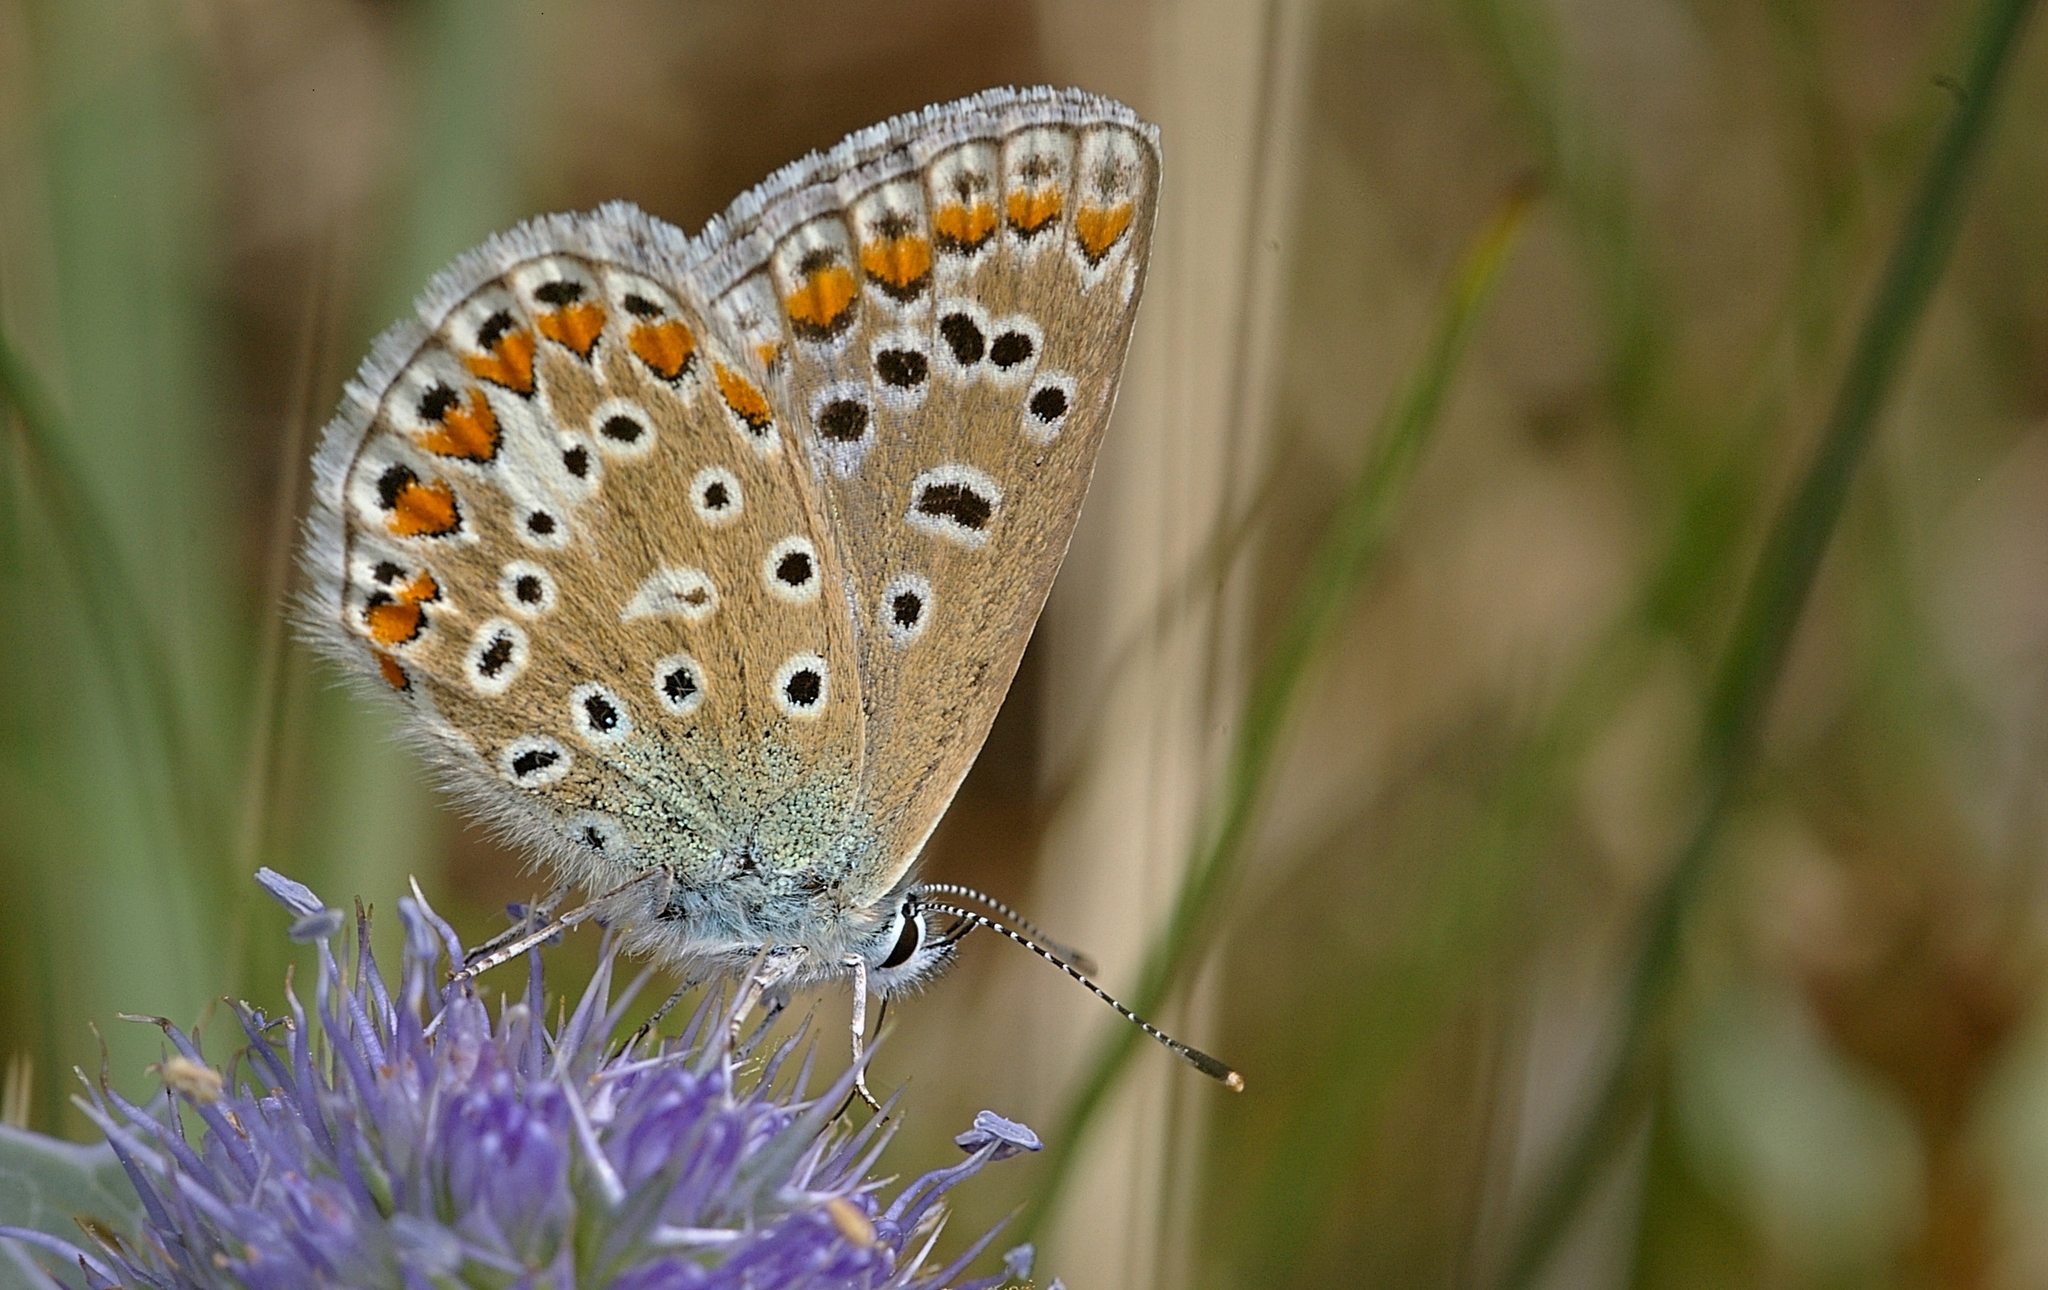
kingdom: Animalia
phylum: Arthropoda
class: Insecta
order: Lepidoptera
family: Lycaenidae
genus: Polyommatus
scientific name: Polyommatus icarus
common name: Common blue
